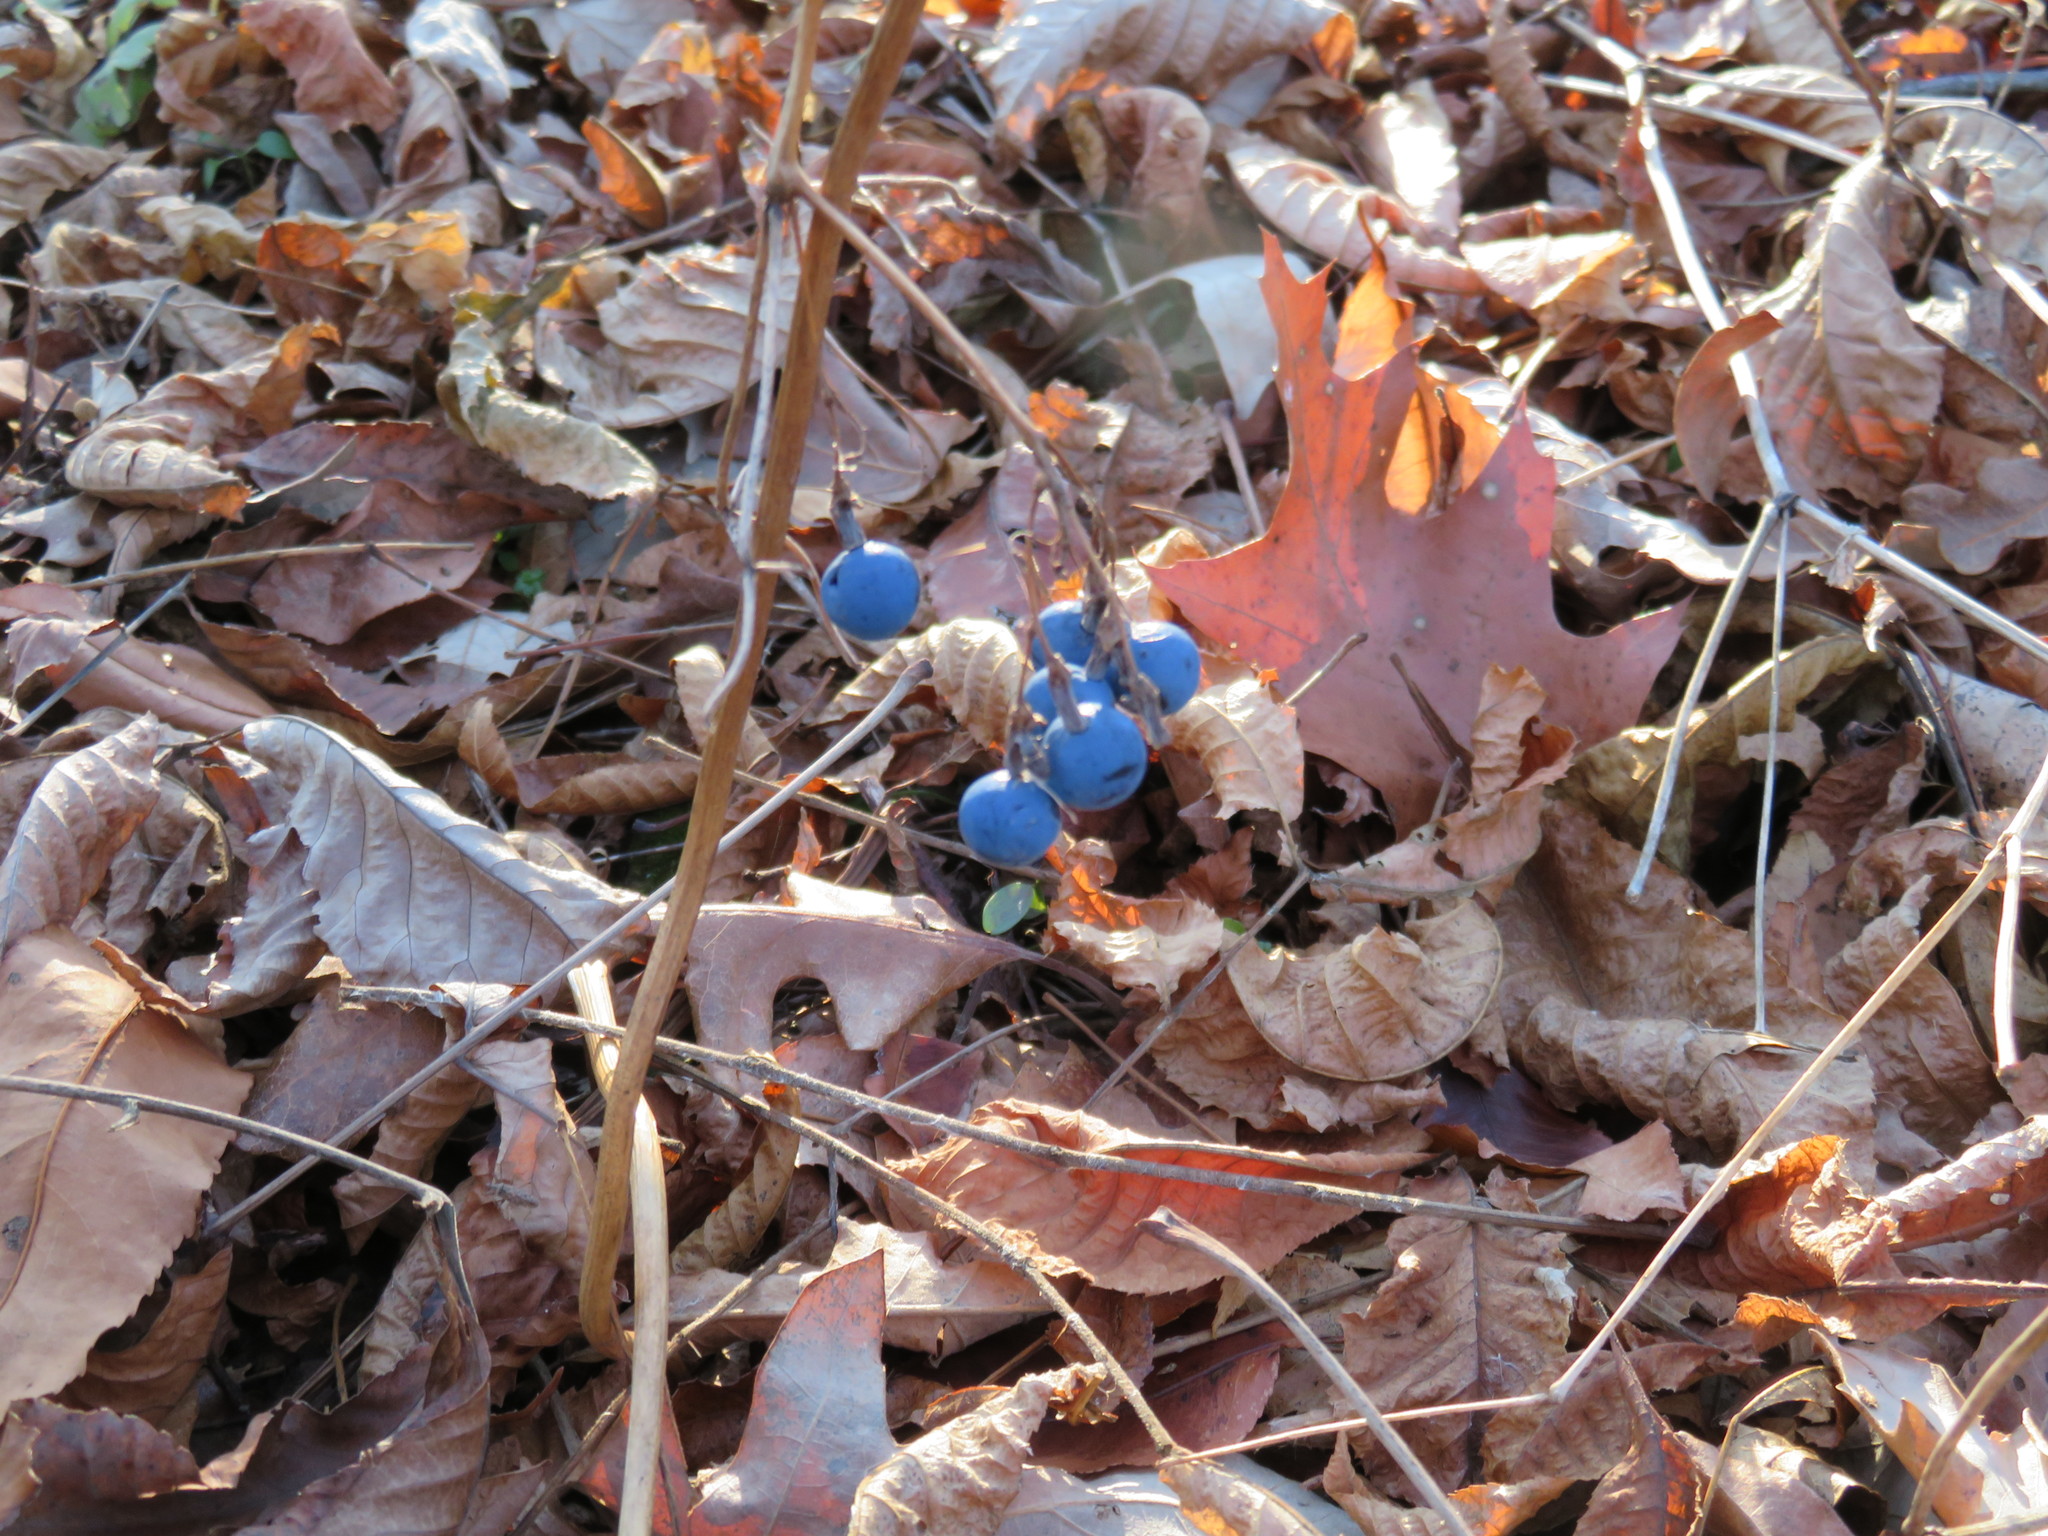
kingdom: Plantae
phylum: Tracheophyta
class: Magnoliopsida
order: Ranunculales
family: Berberidaceae
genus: Caulophyllum
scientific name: Caulophyllum thalictroides
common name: Blue cohosh
